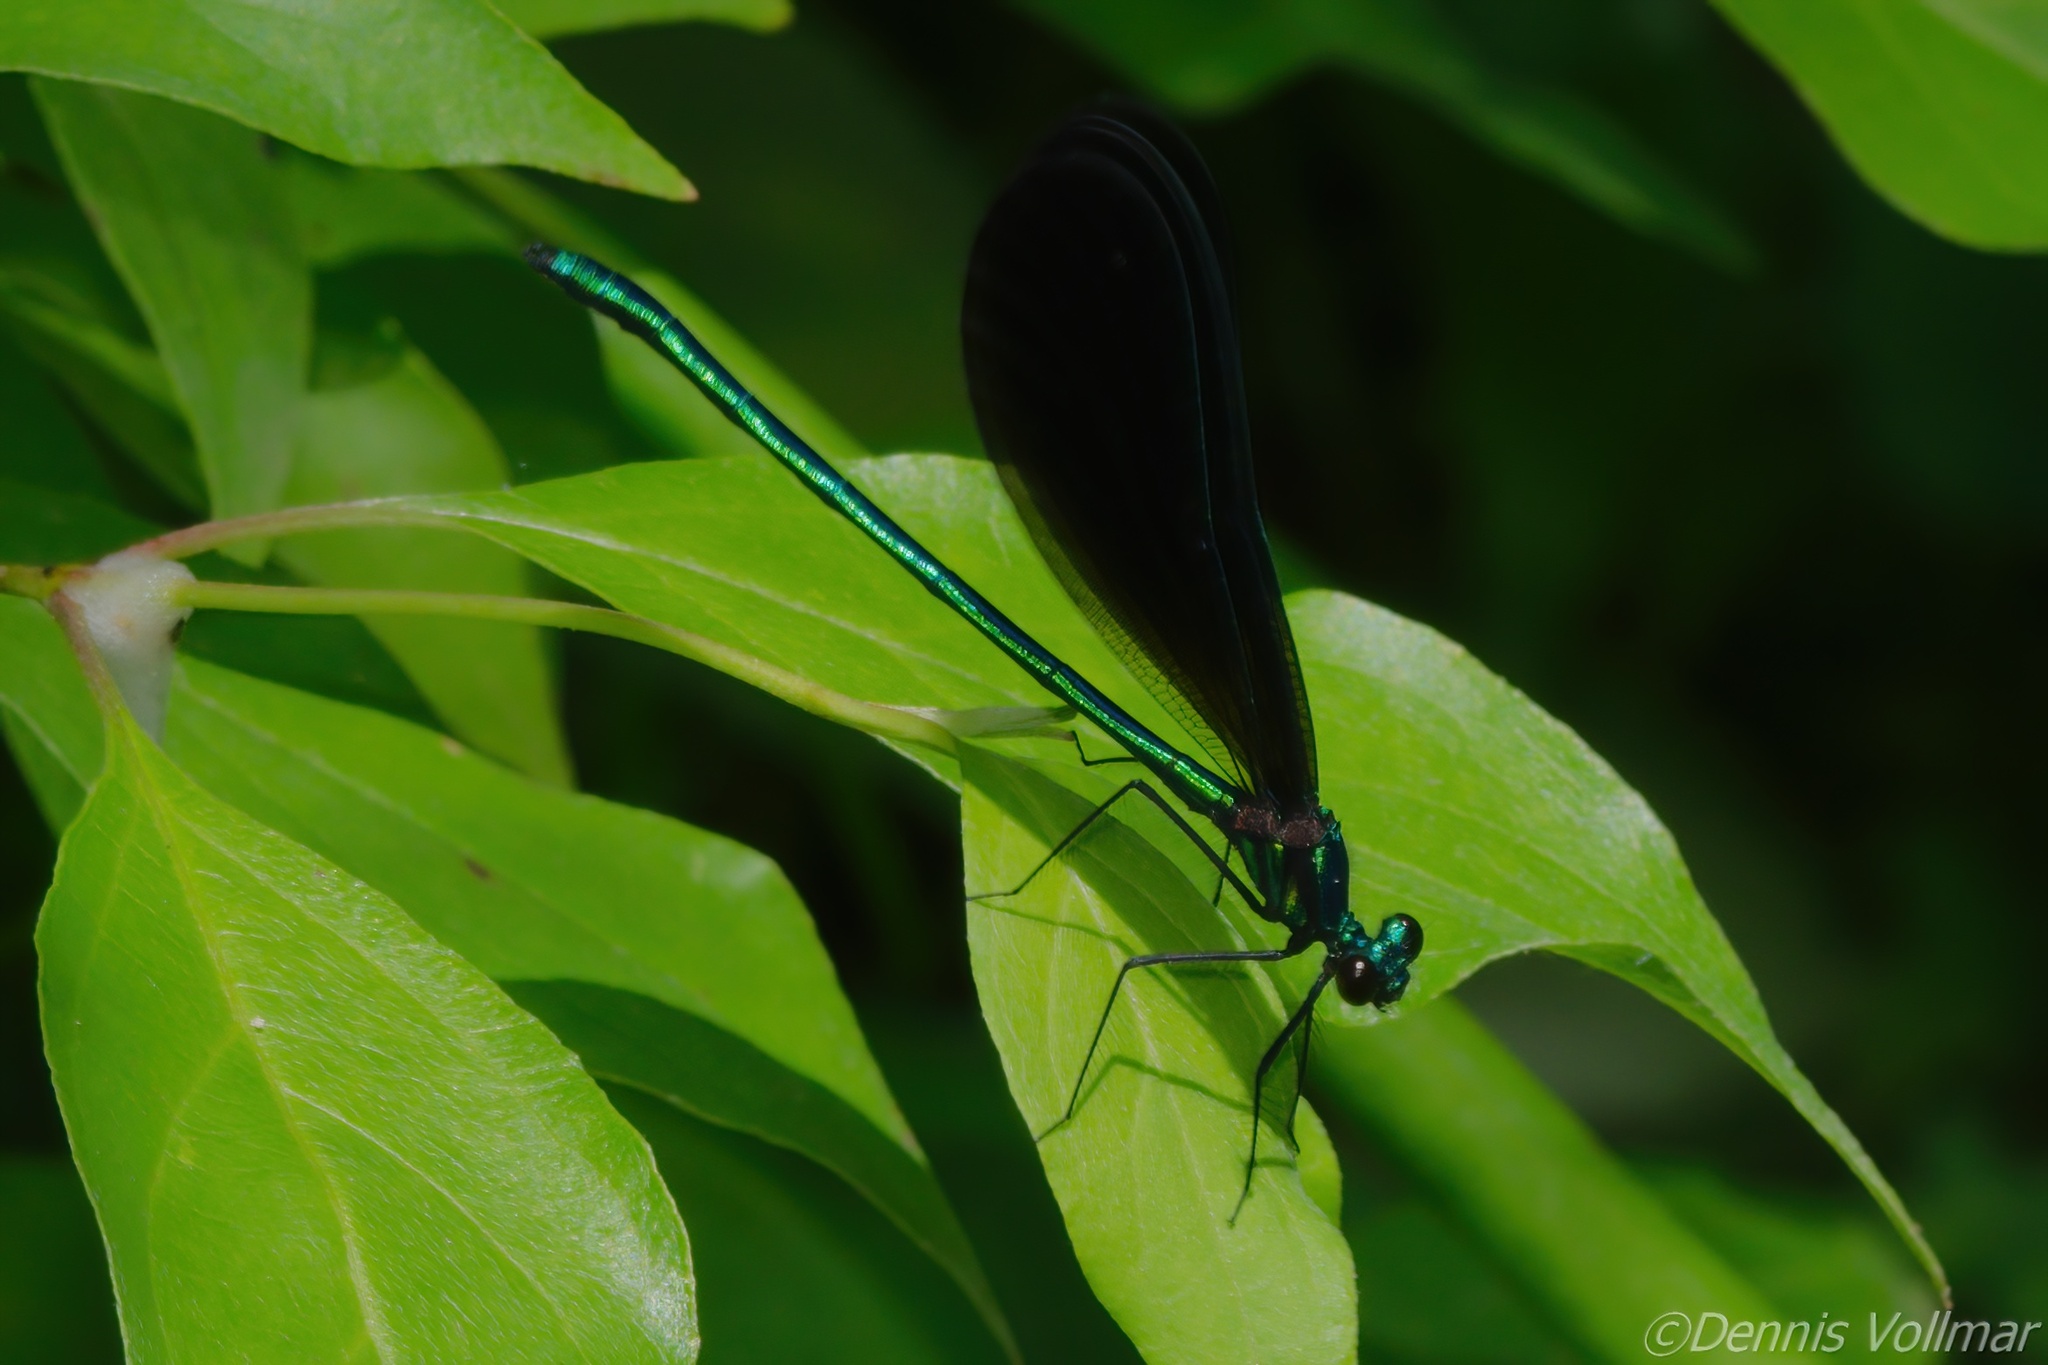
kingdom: Animalia
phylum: Arthropoda
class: Insecta
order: Odonata
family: Calopterygidae
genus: Calopteryx
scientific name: Calopteryx maculata
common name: Ebony jewelwing
